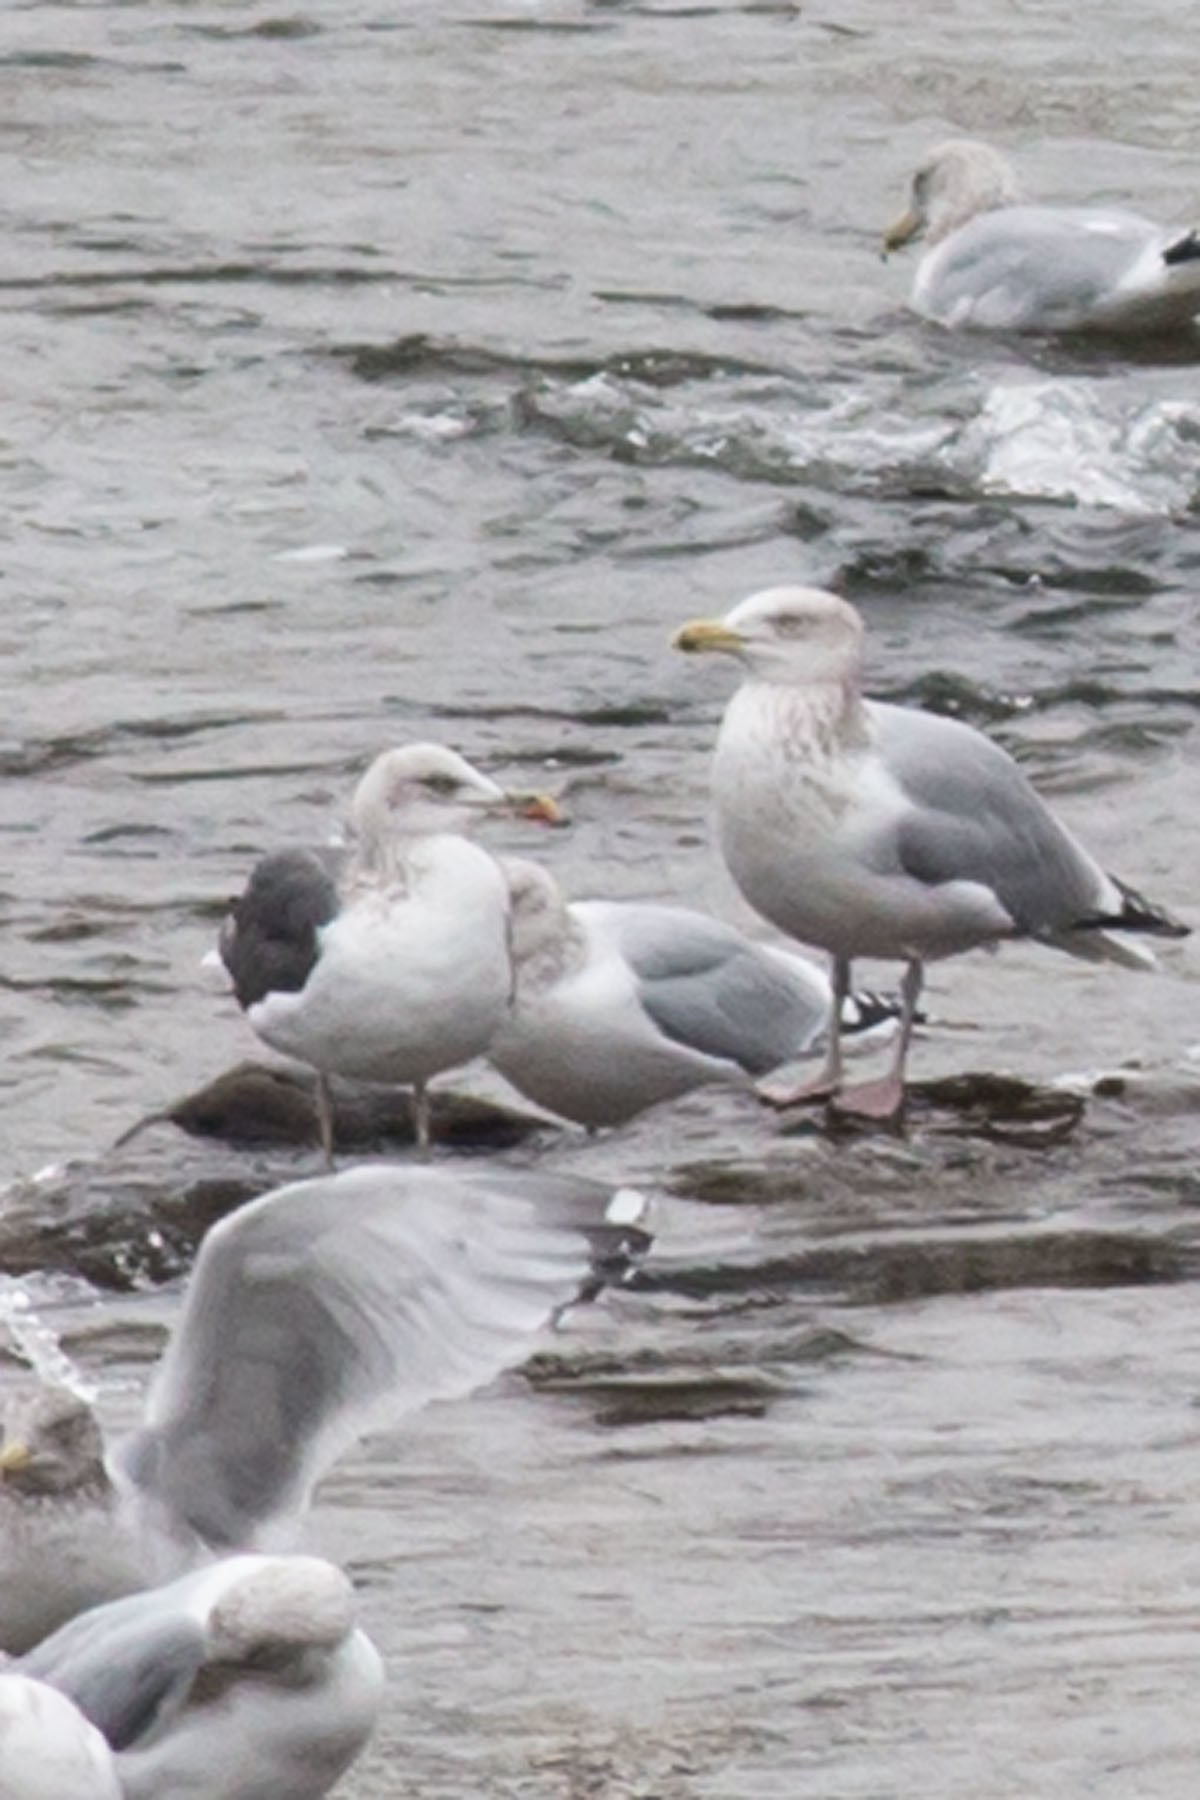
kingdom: Animalia
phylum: Chordata
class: Aves
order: Charadriiformes
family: Laridae
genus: Larus
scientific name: Larus fuscus
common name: Lesser black-backed gull
